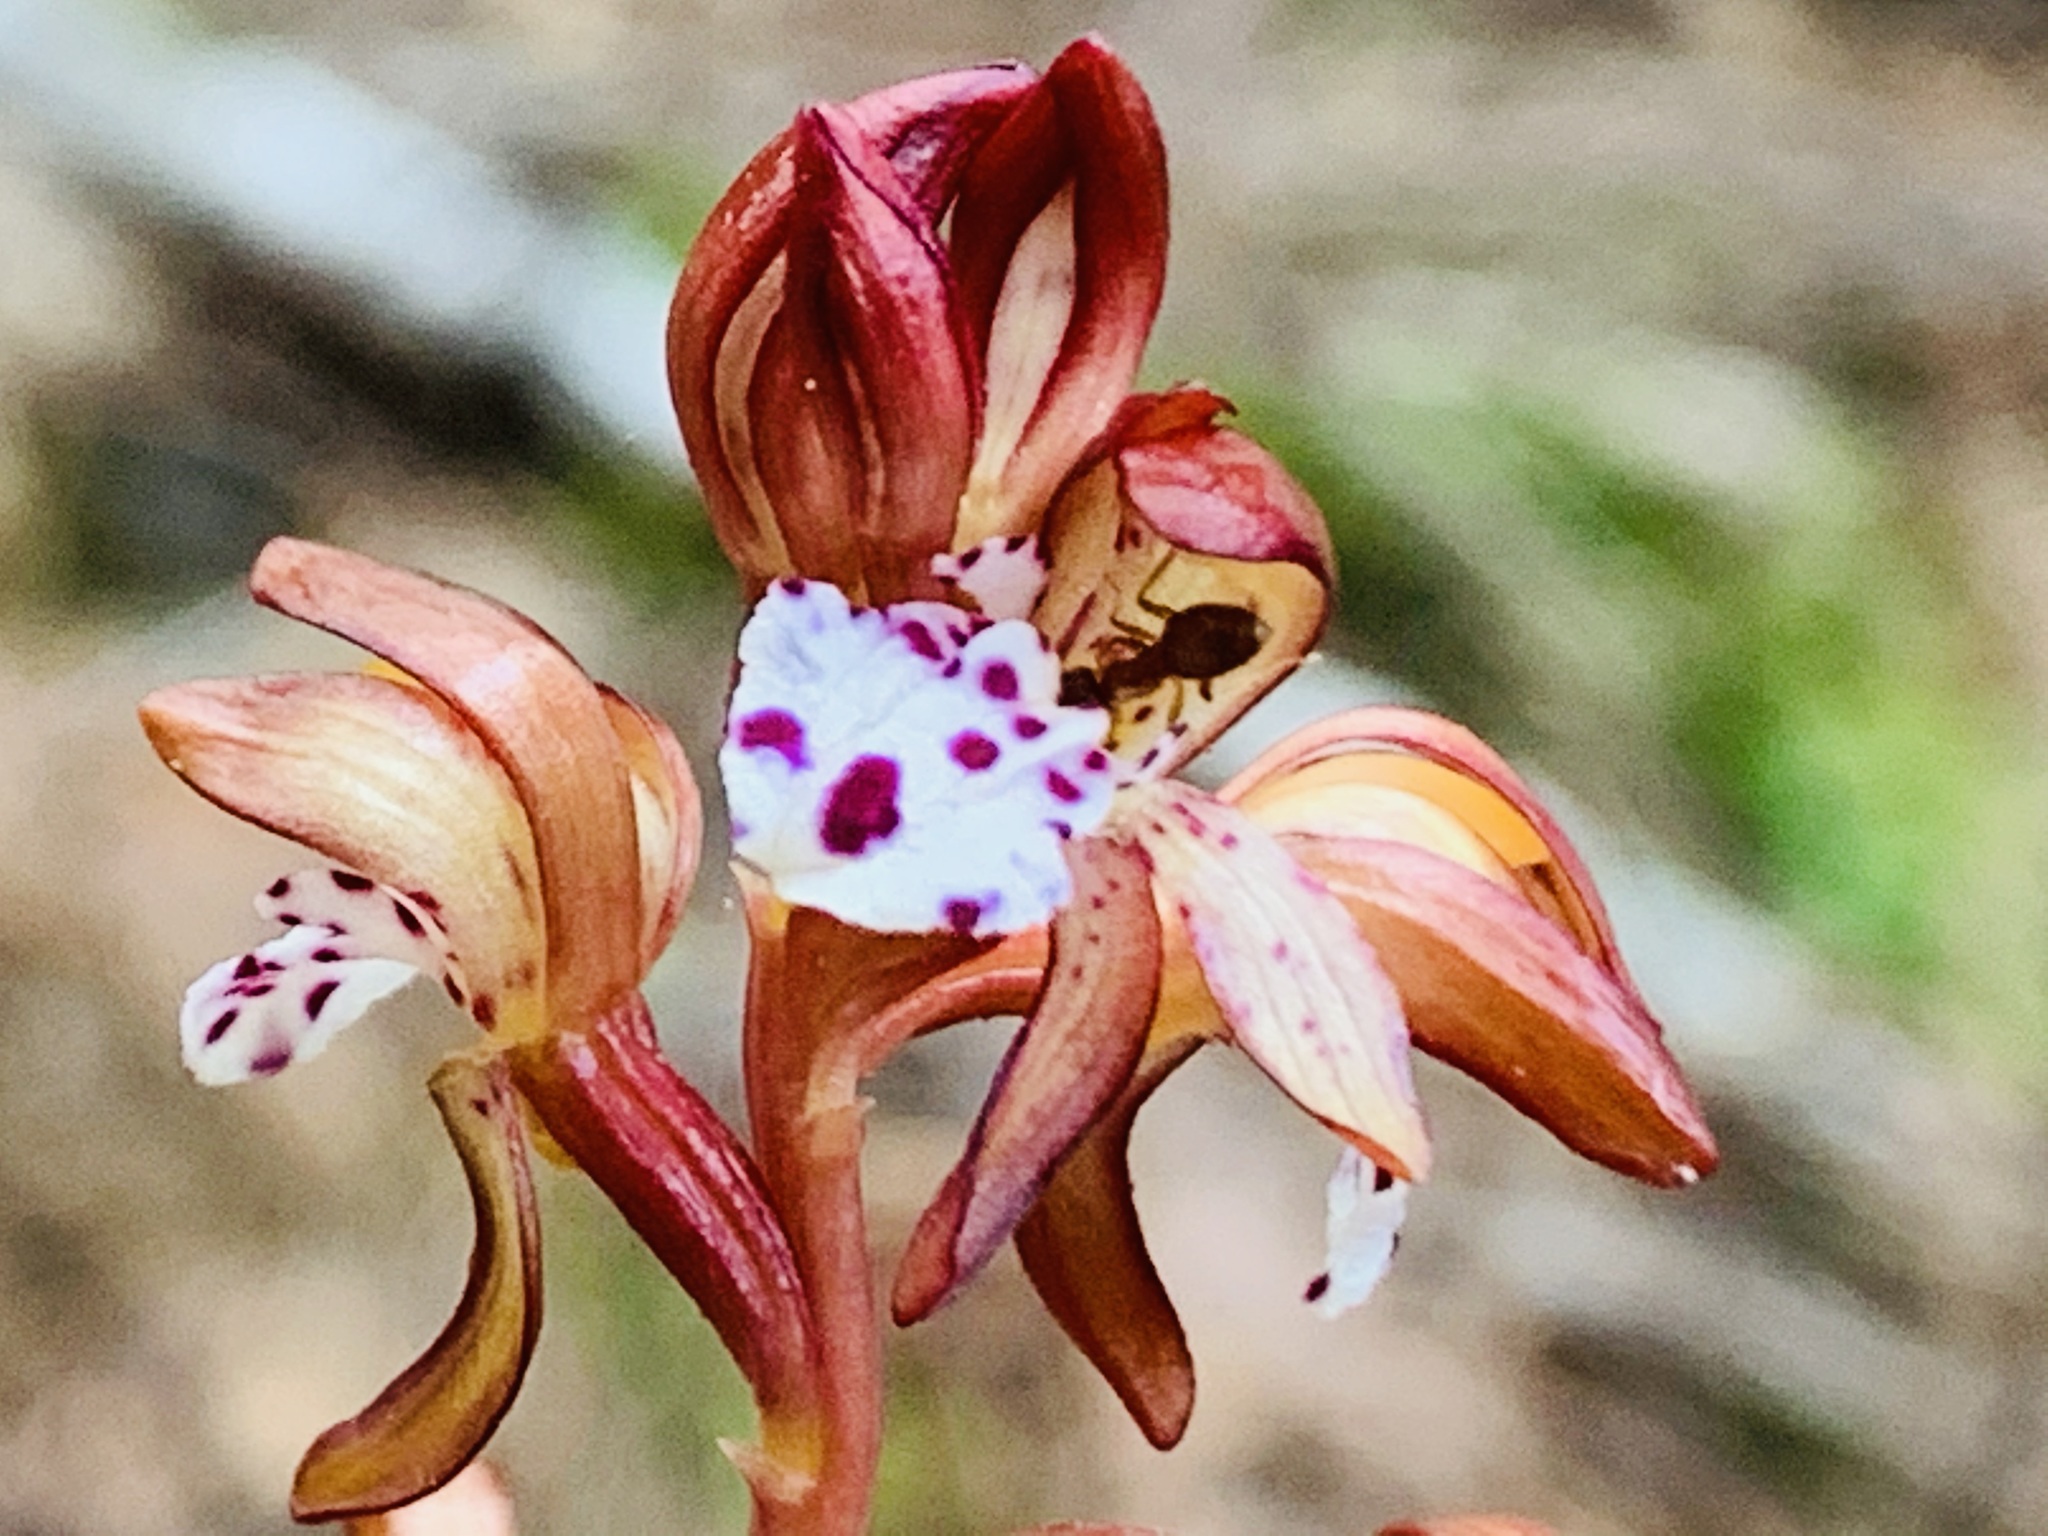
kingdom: Plantae
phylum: Tracheophyta
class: Liliopsida
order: Asparagales
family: Orchidaceae
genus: Corallorhiza
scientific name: Corallorhiza maculata
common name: Spotted coralroot
